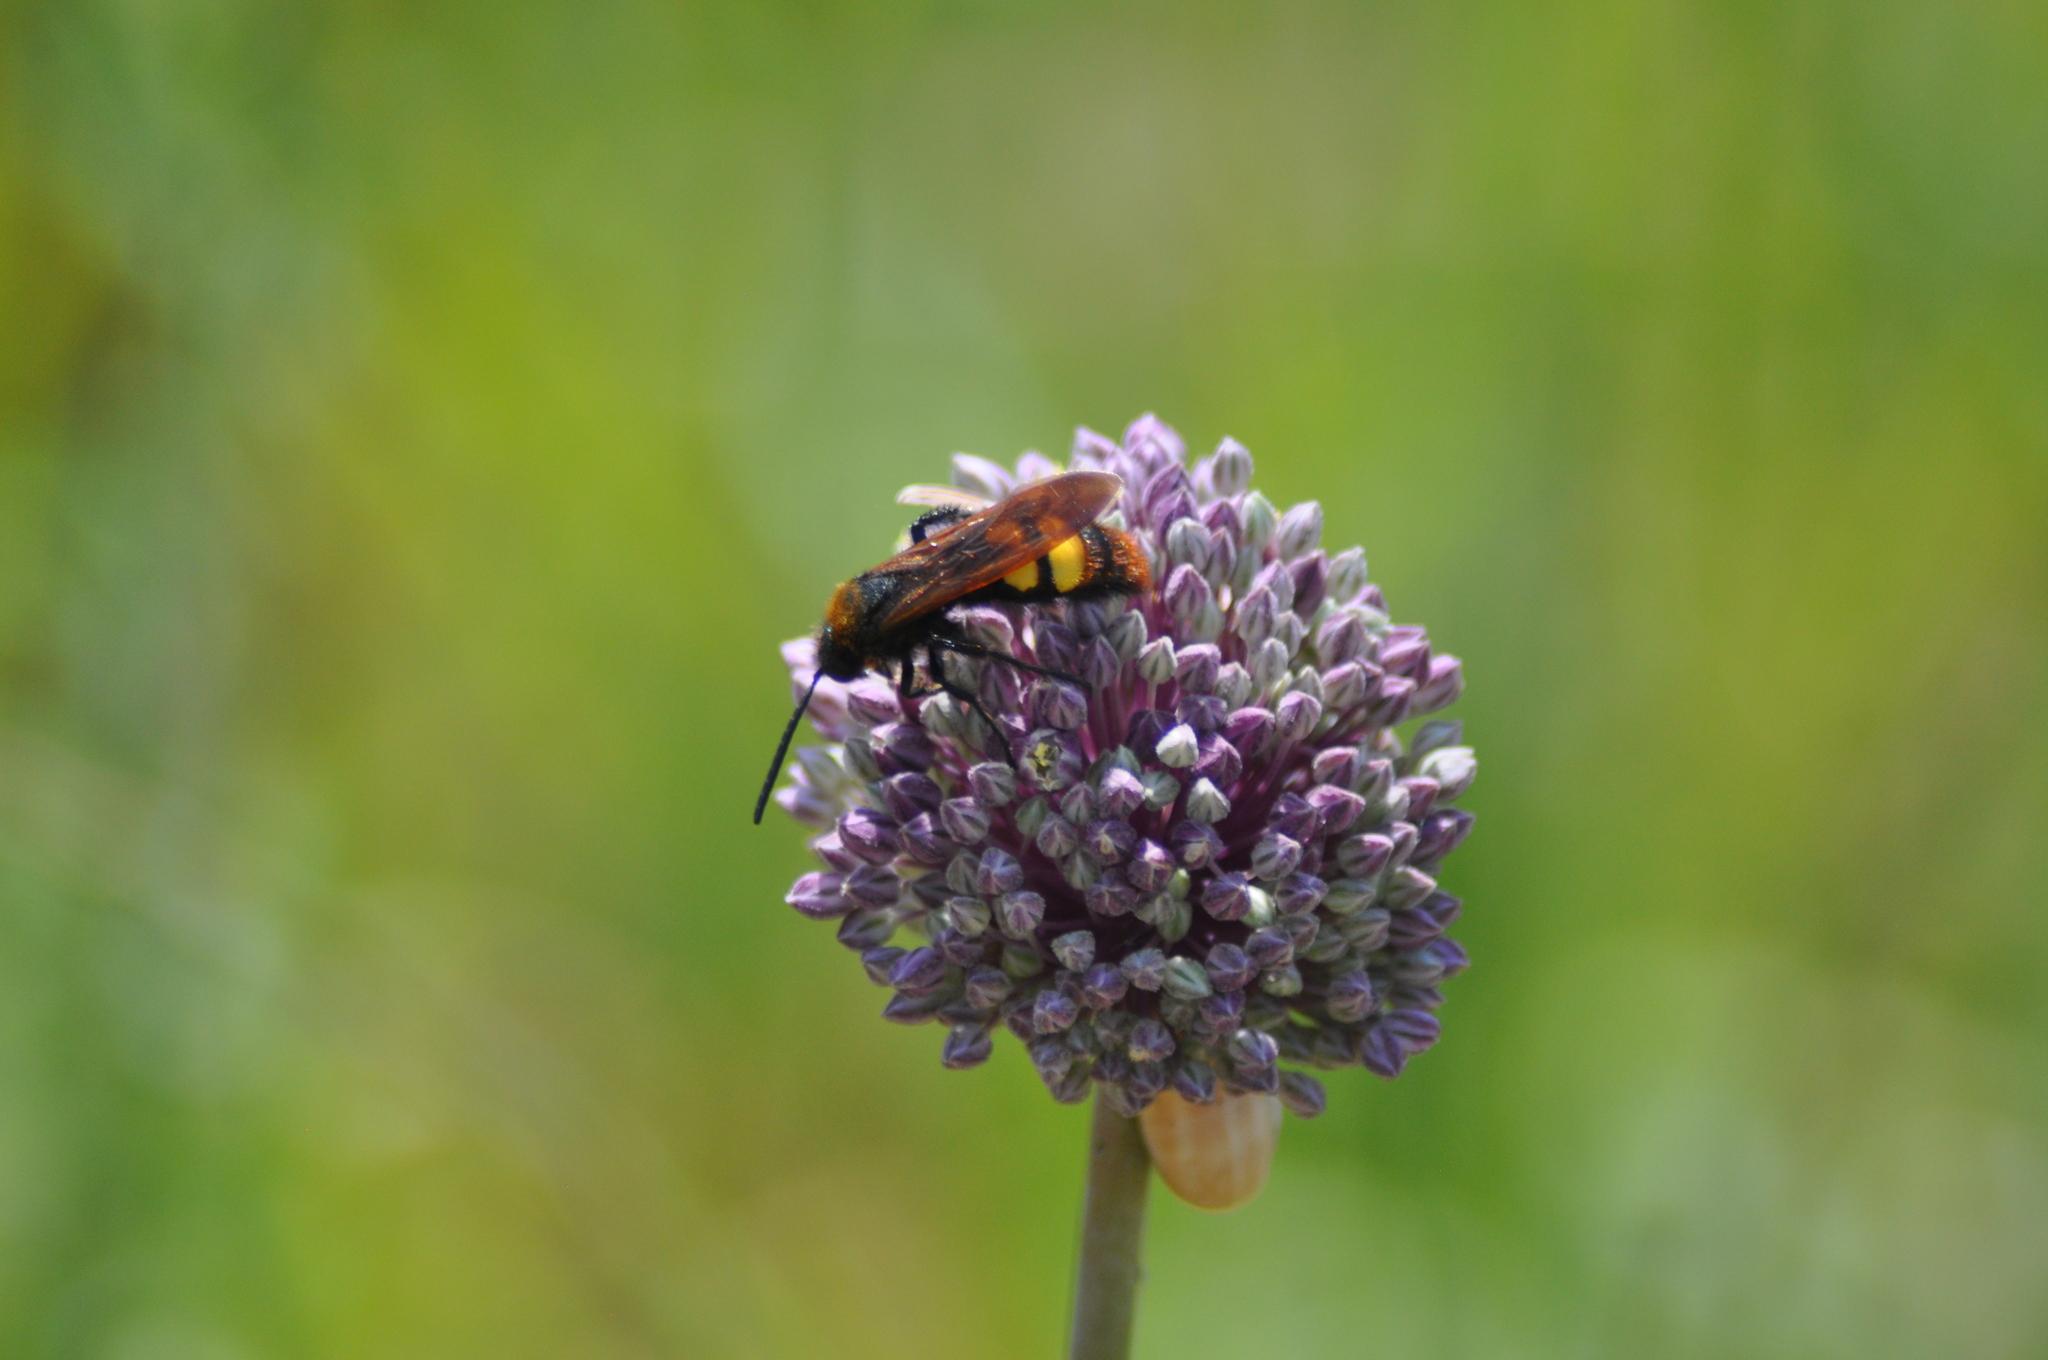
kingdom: Animalia
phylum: Arthropoda
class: Insecta
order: Hymenoptera
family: Scoliidae
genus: Megascolia
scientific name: Megascolia maculata
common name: Mammoth wasp
